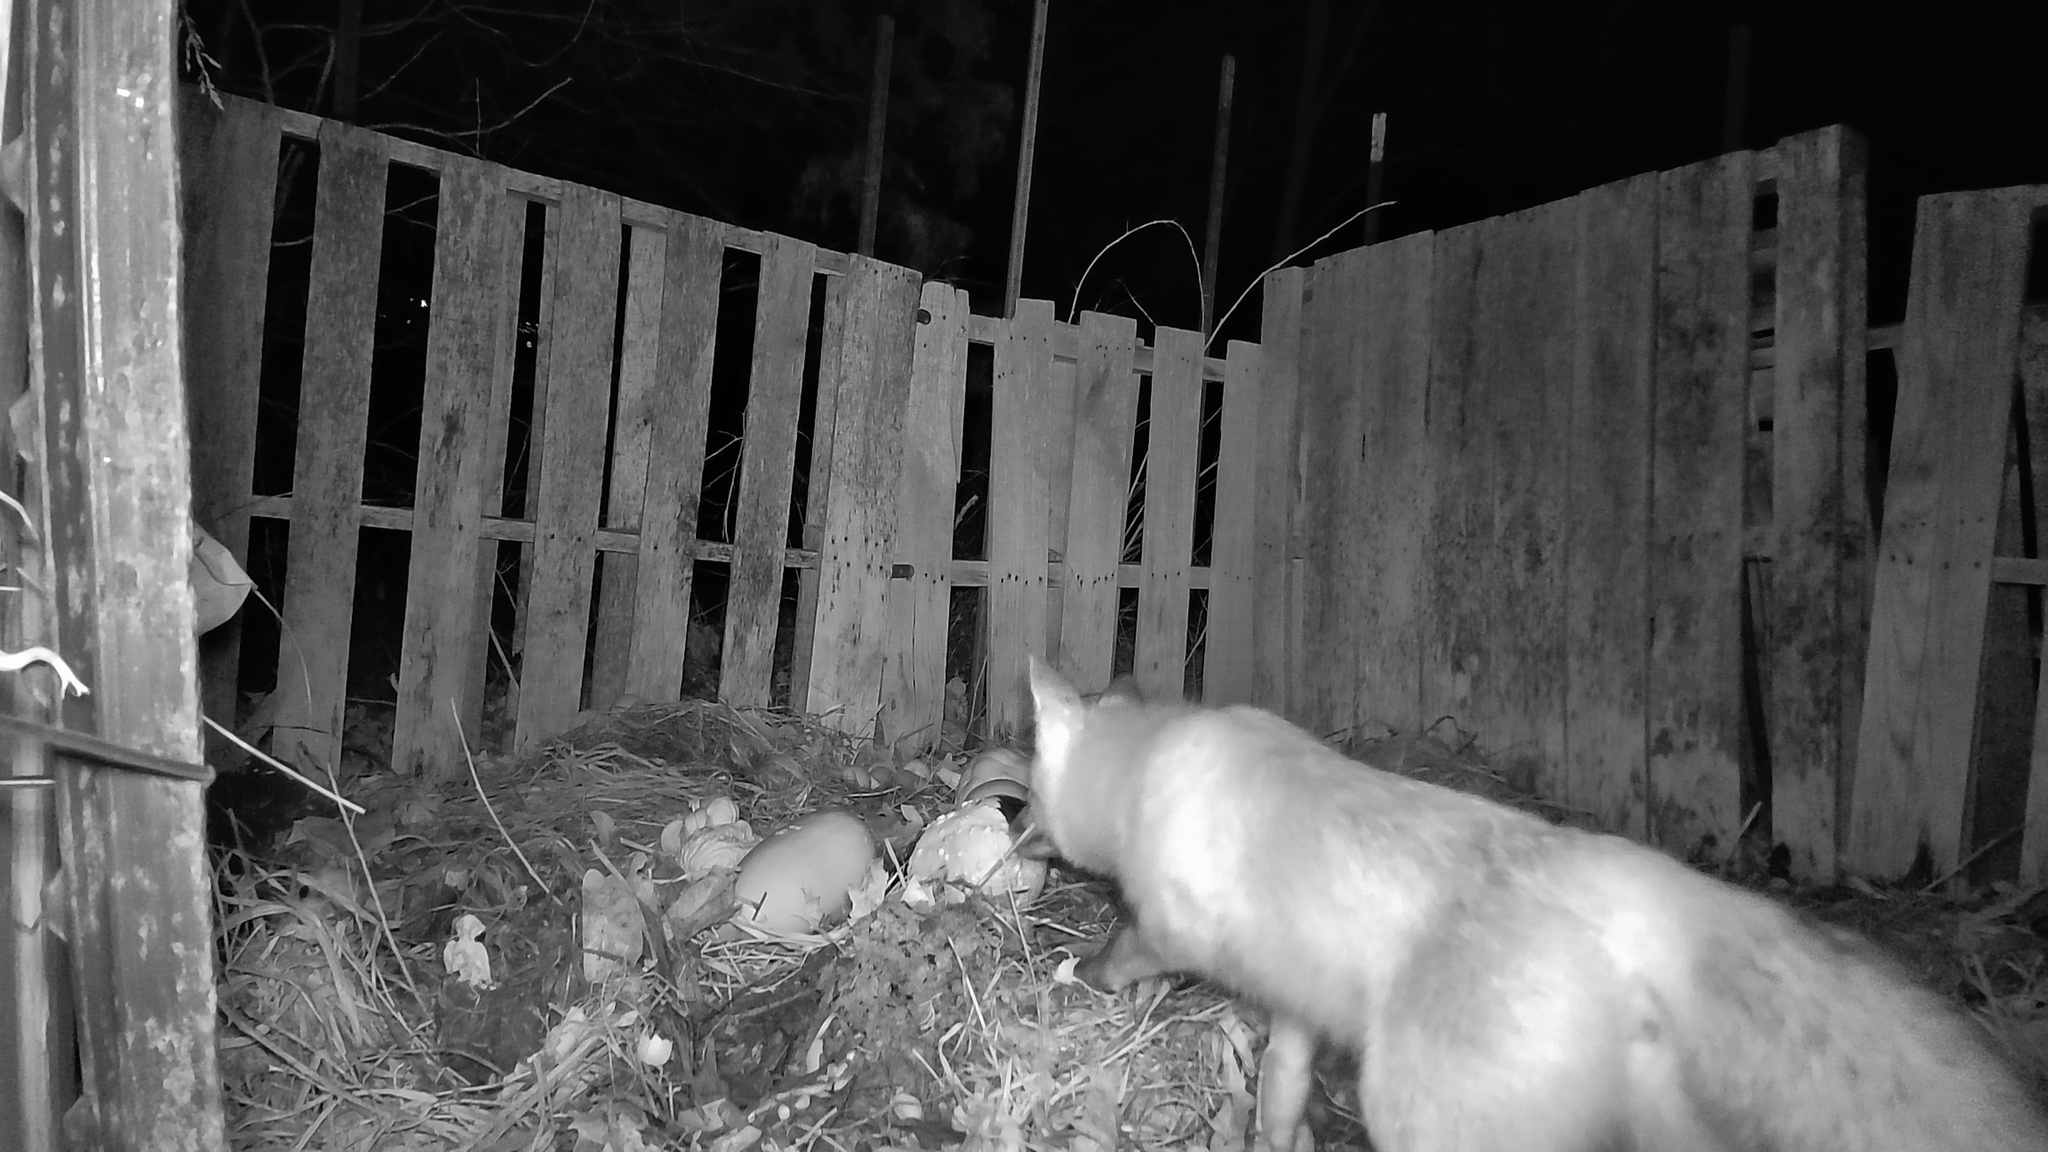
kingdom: Animalia
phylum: Chordata
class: Mammalia
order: Carnivora
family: Canidae
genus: Vulpes
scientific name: Vulpes vulpes
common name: Red fox
